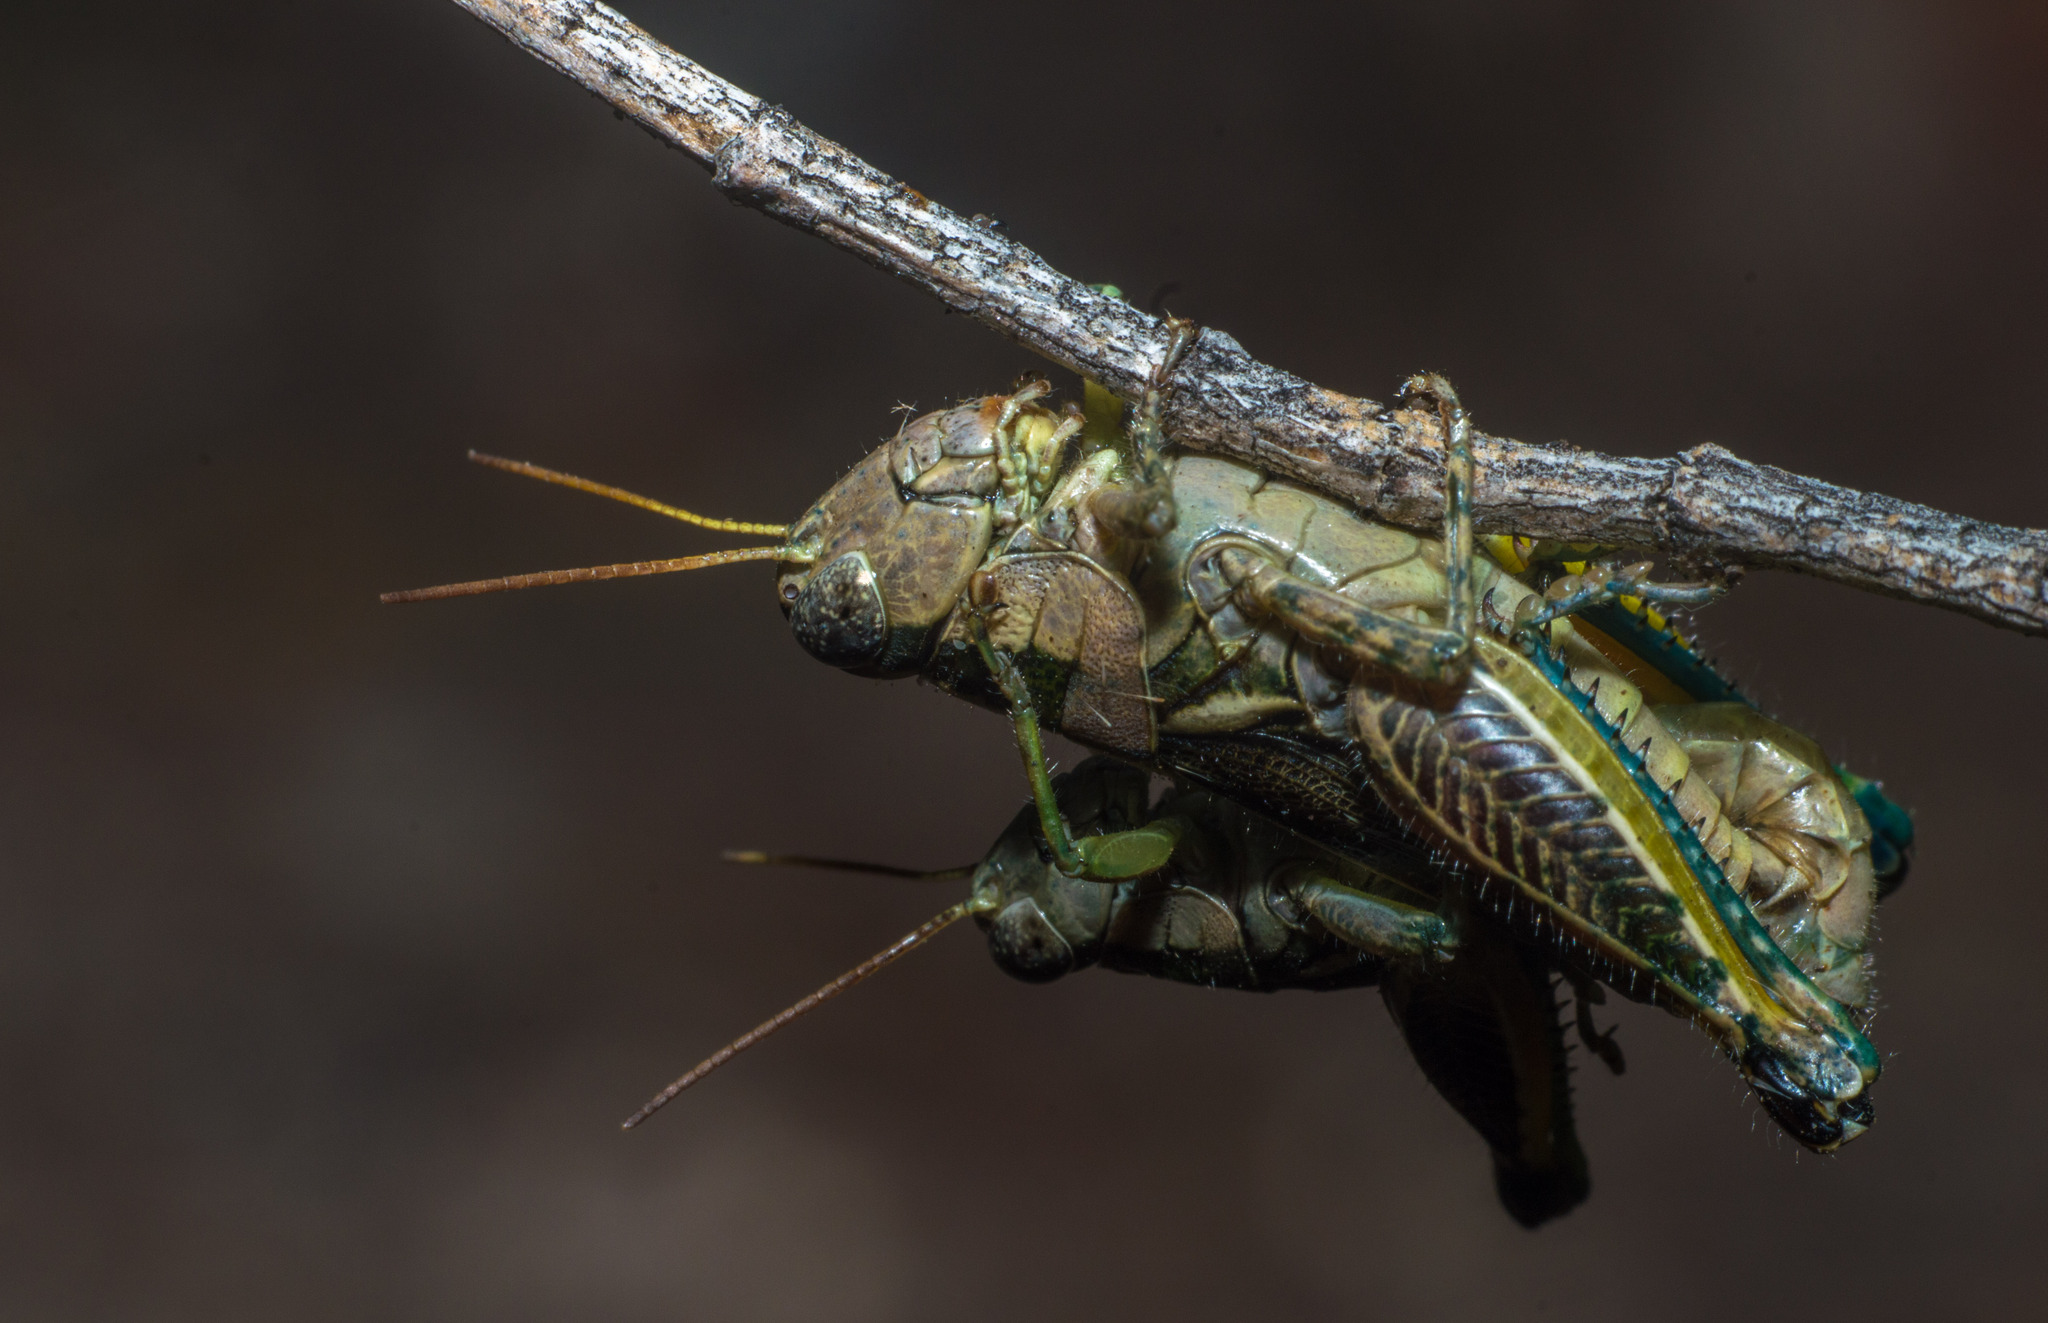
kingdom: Animalia
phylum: Arthropoda
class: Insecta
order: Orthoptera
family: Acrididae
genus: Dichroplus
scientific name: Dichroplus vittatus
